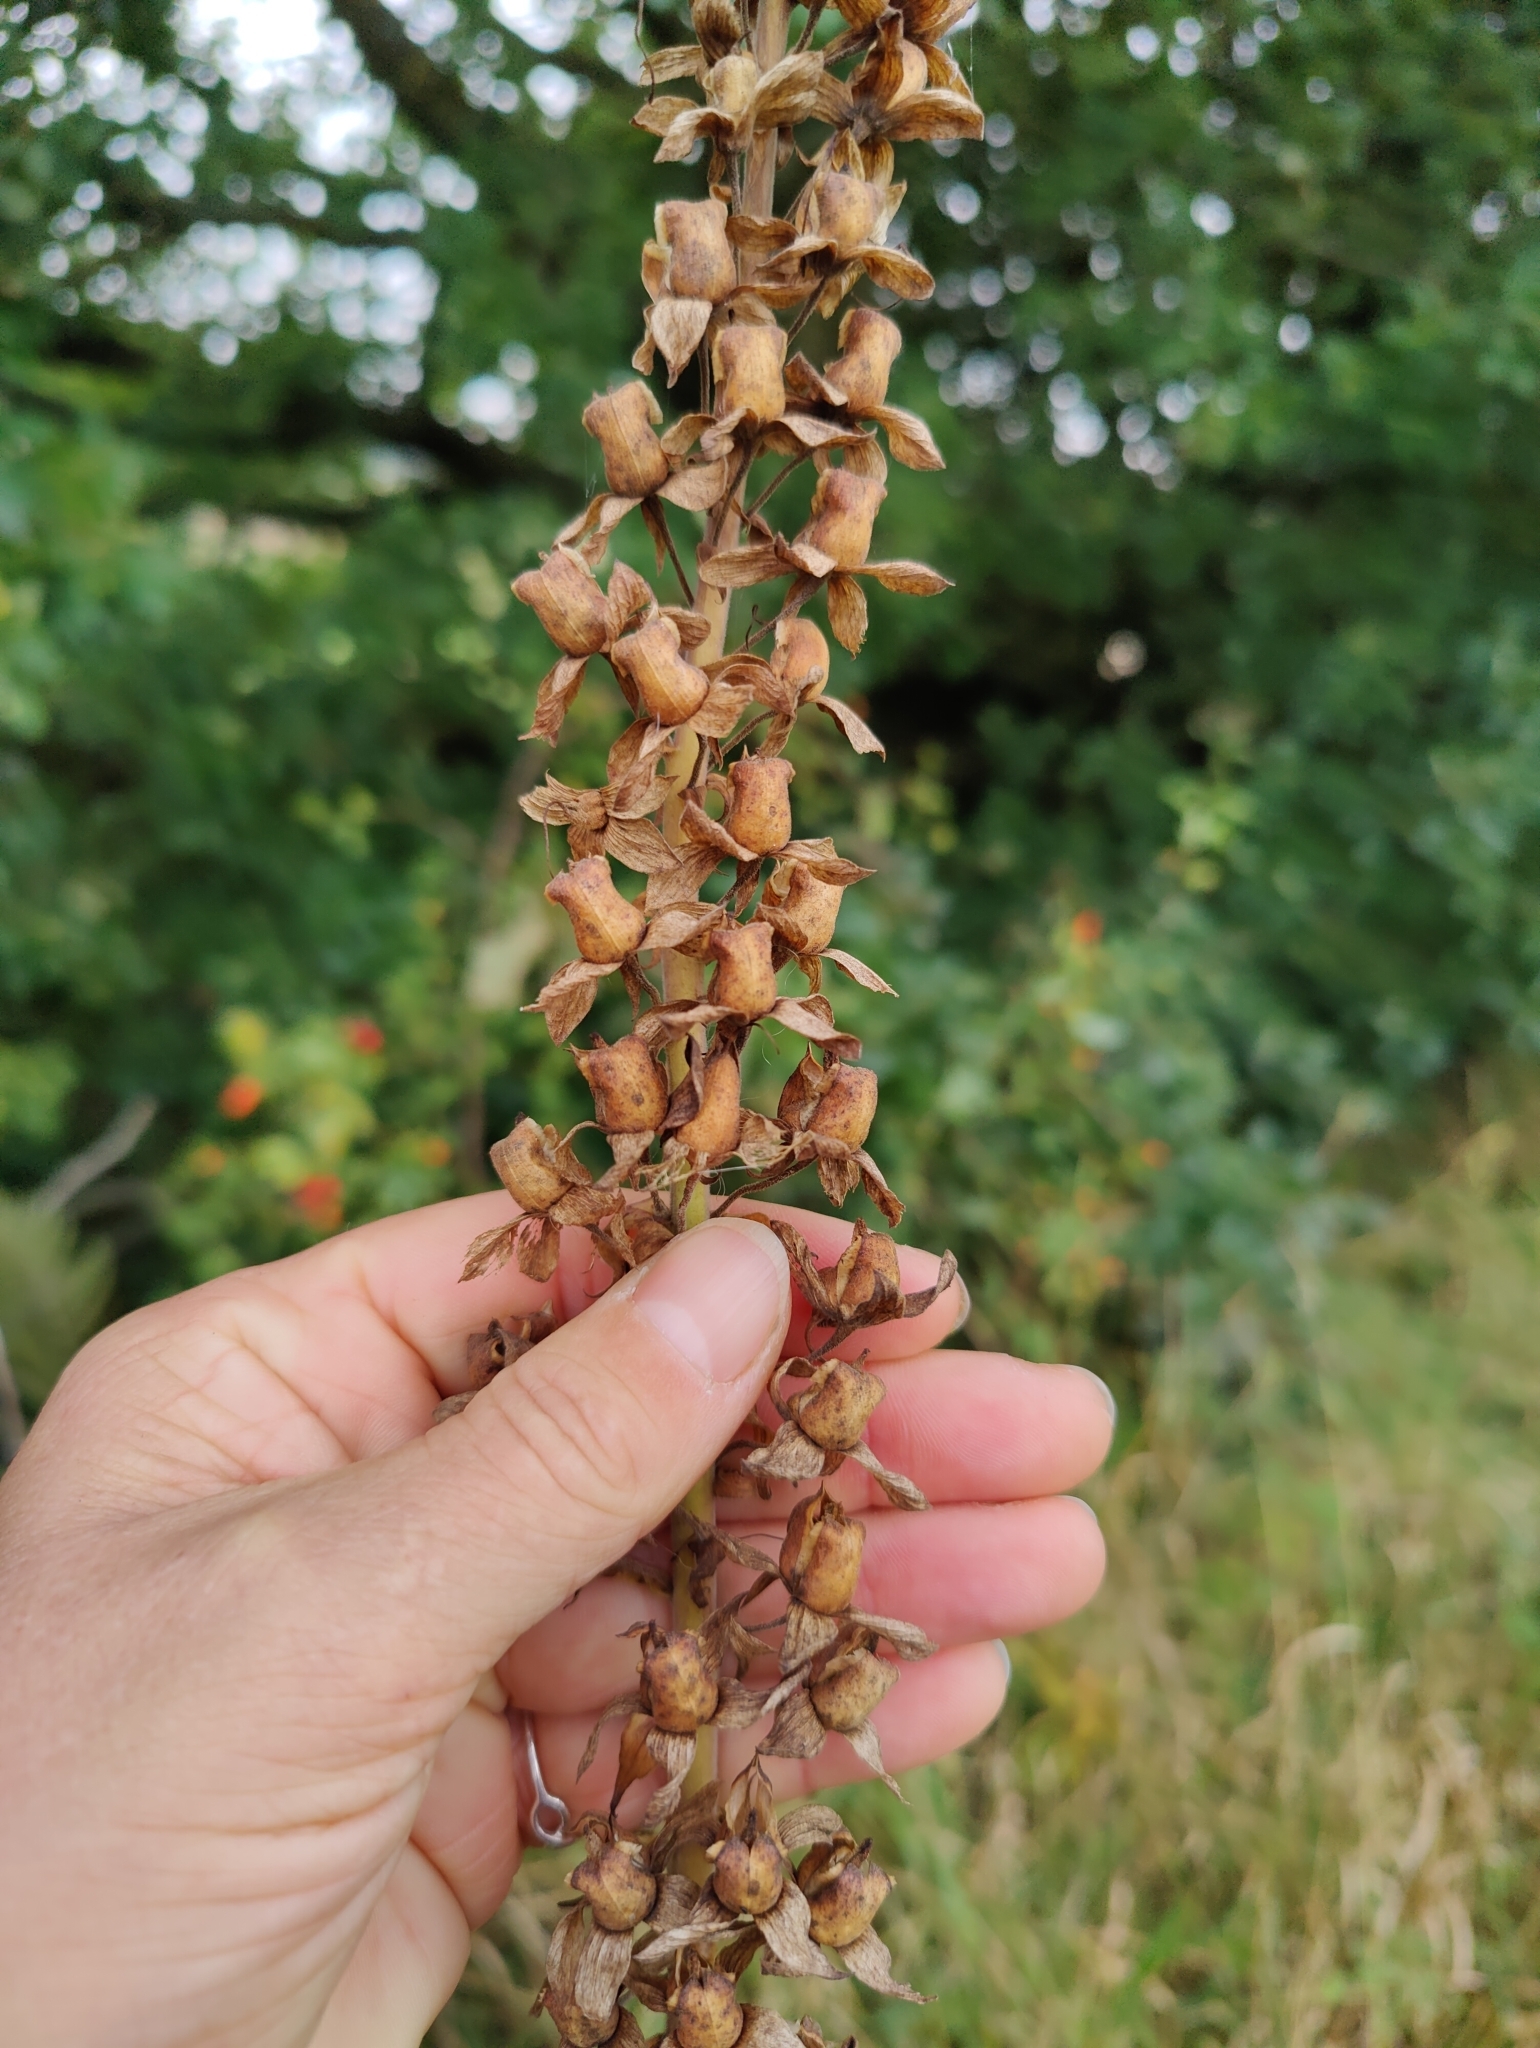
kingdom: Plantae
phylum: Tracheophyta
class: Magnoliopsida
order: Lamiales
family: Plantaginaceae
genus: Digitalis
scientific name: Digitalis purpurea
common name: Foxglove
